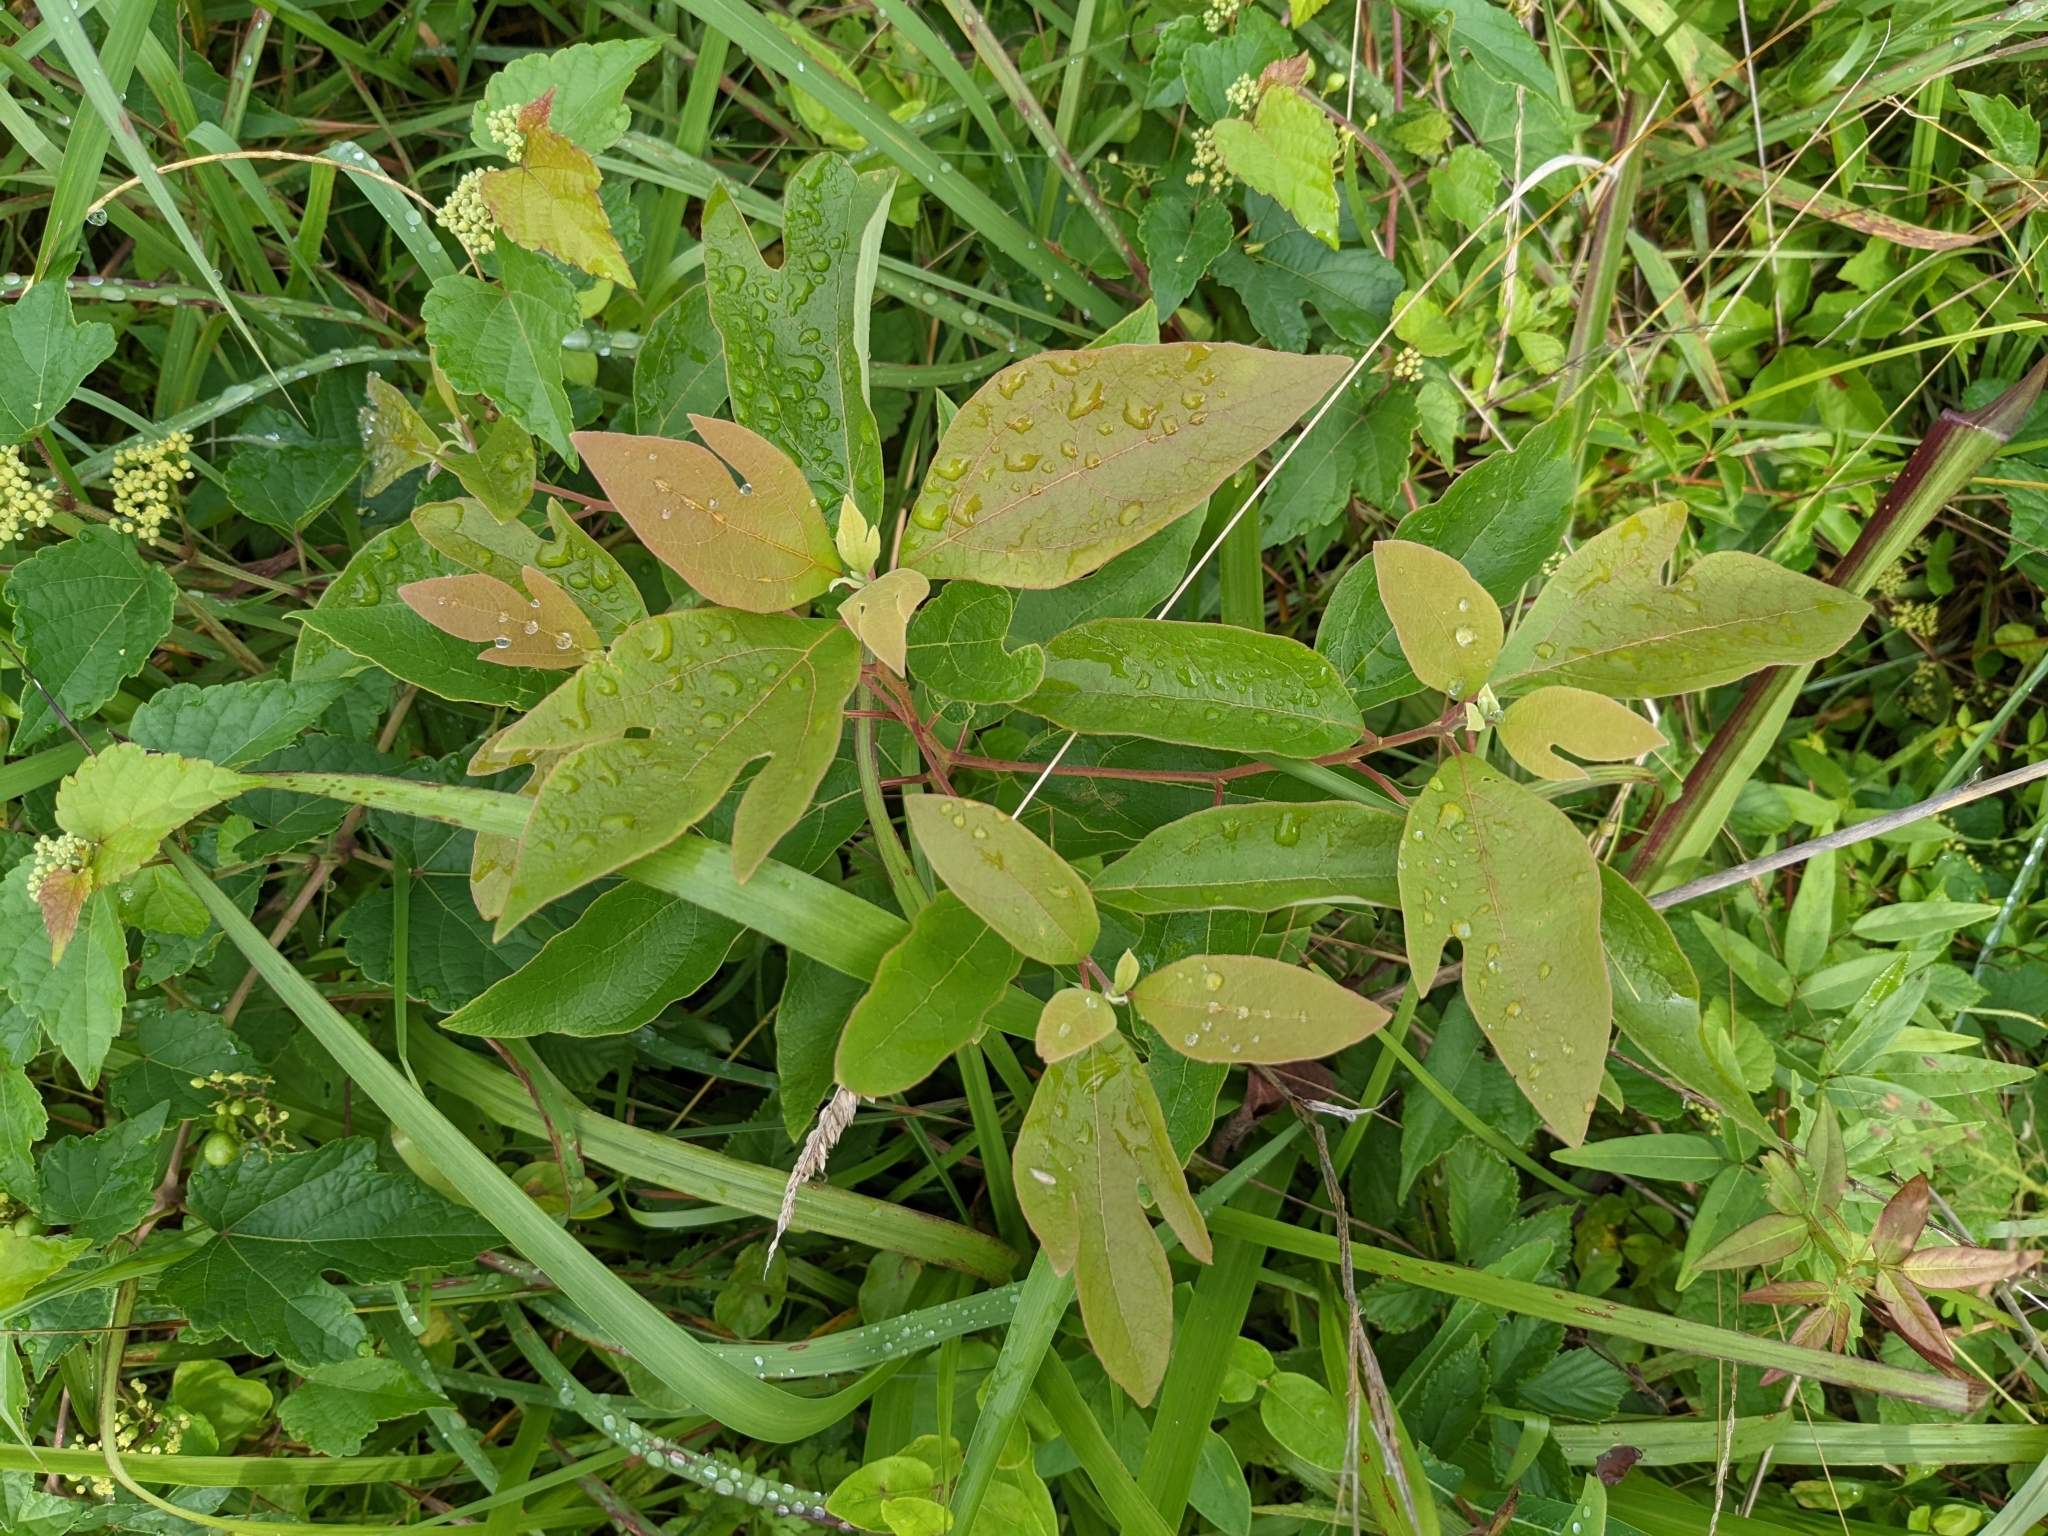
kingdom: Plantae
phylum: Tracheophyta
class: Magnoliopsida
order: Laurales
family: Lauraceae
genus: Sassafras
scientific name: Sassafras albidum
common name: Sassafras
